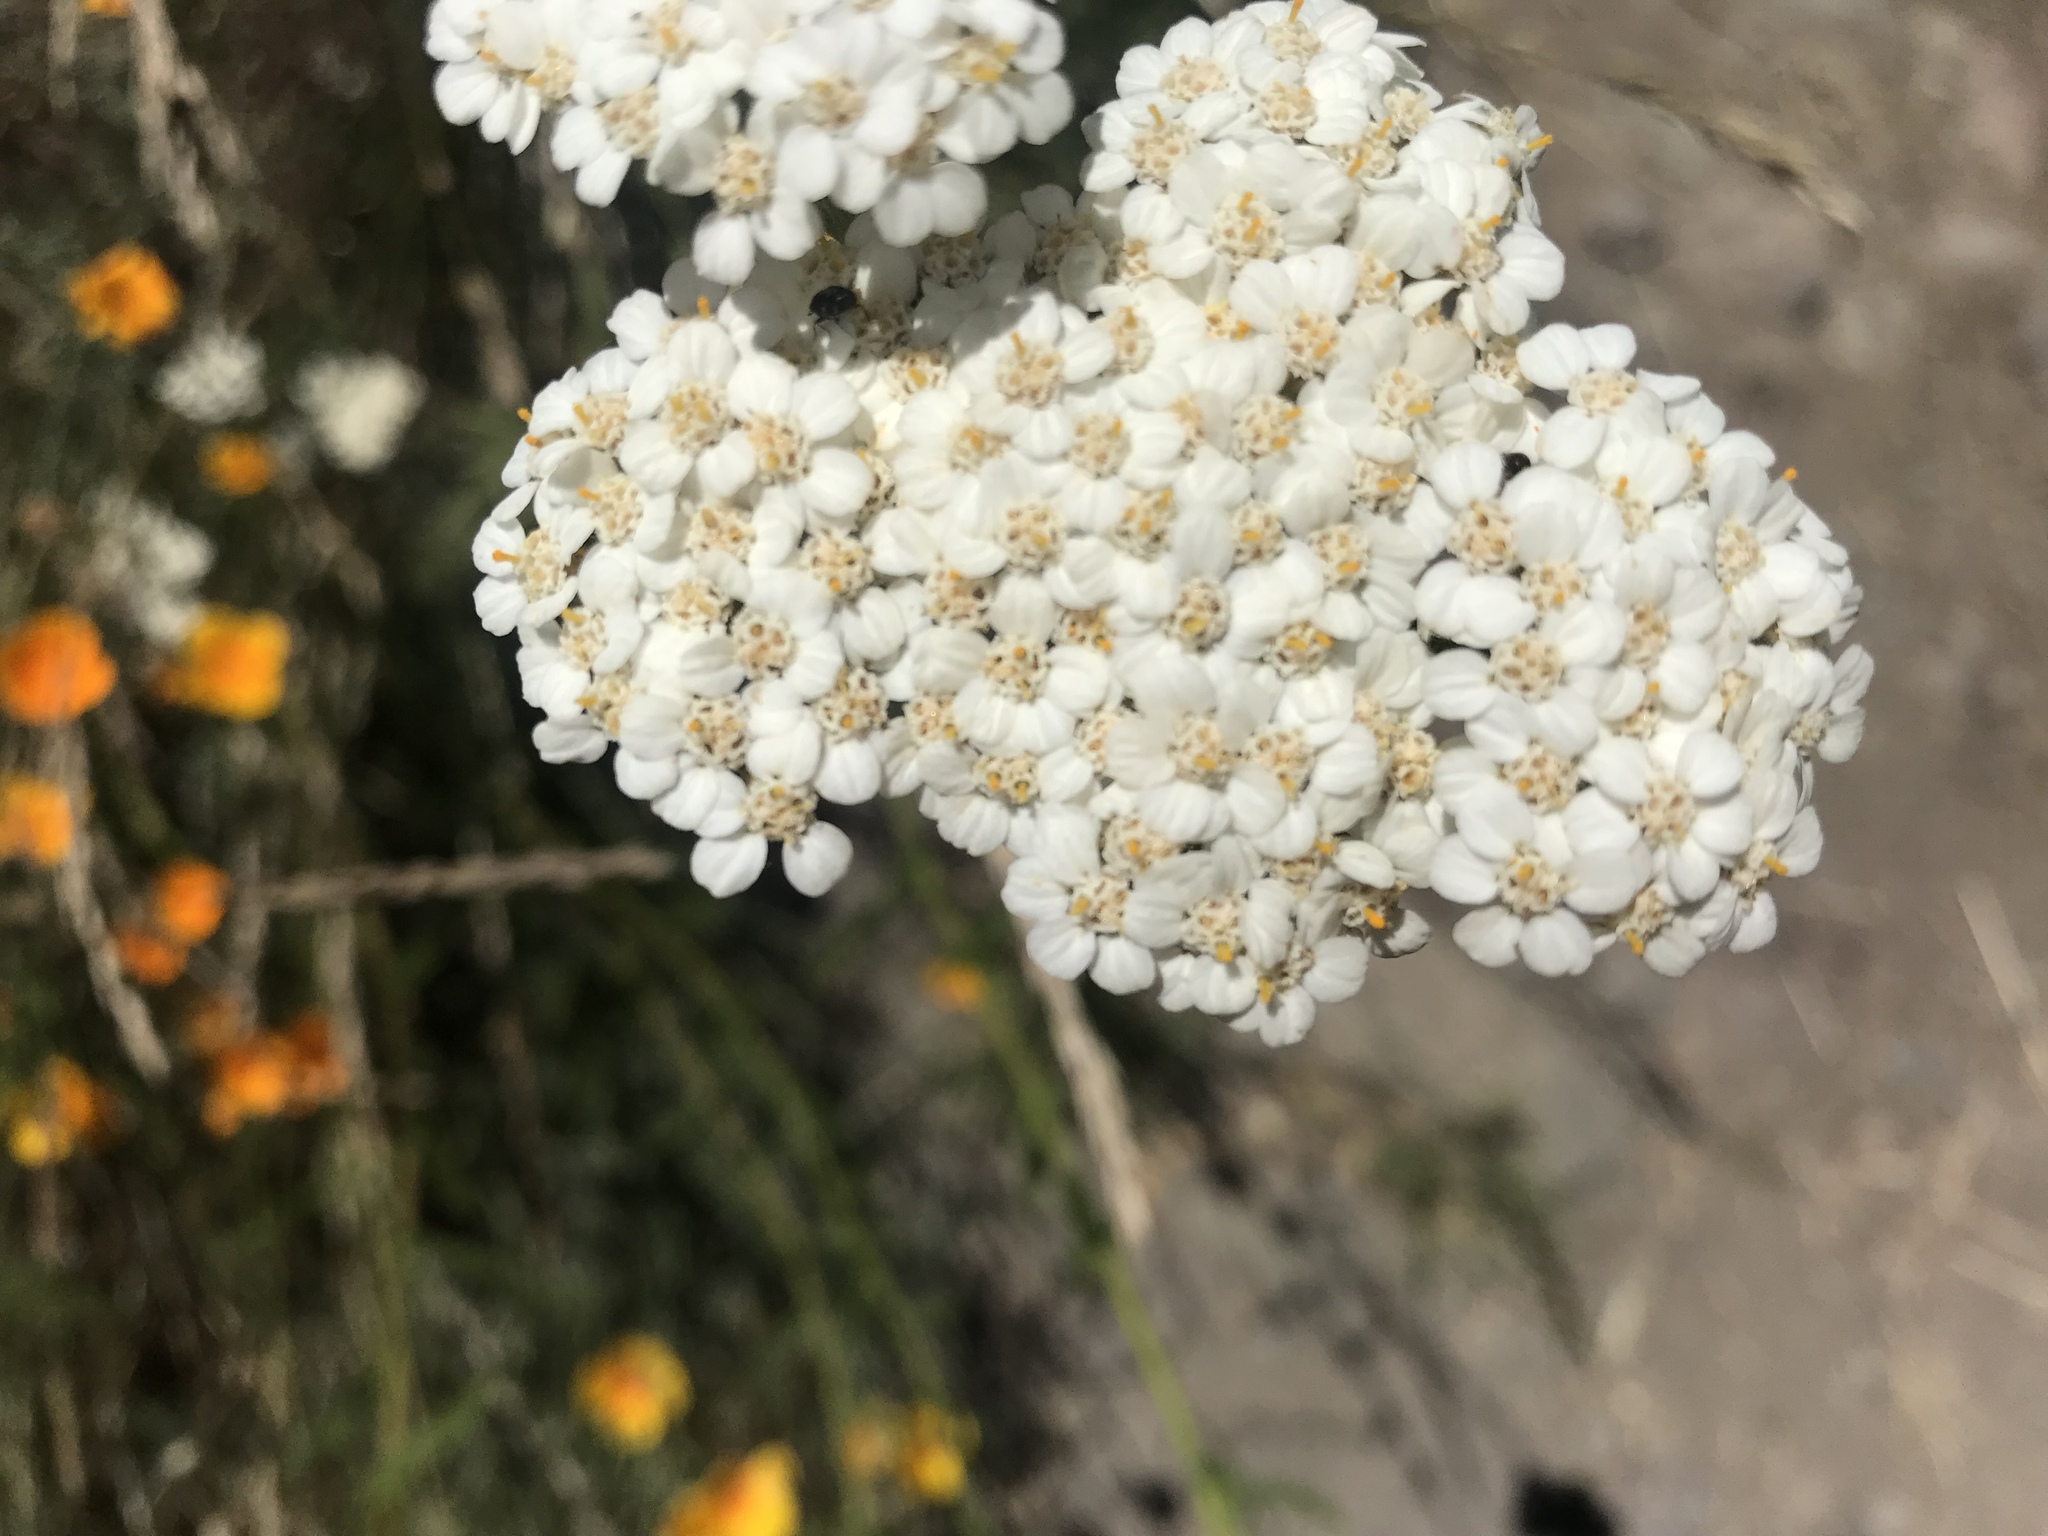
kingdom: Plantae
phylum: Tracheophyta
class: Magnoliopsida
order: Asterales
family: Asteraceae
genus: Achillea
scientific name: Achillea millefolium
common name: Yarrow
